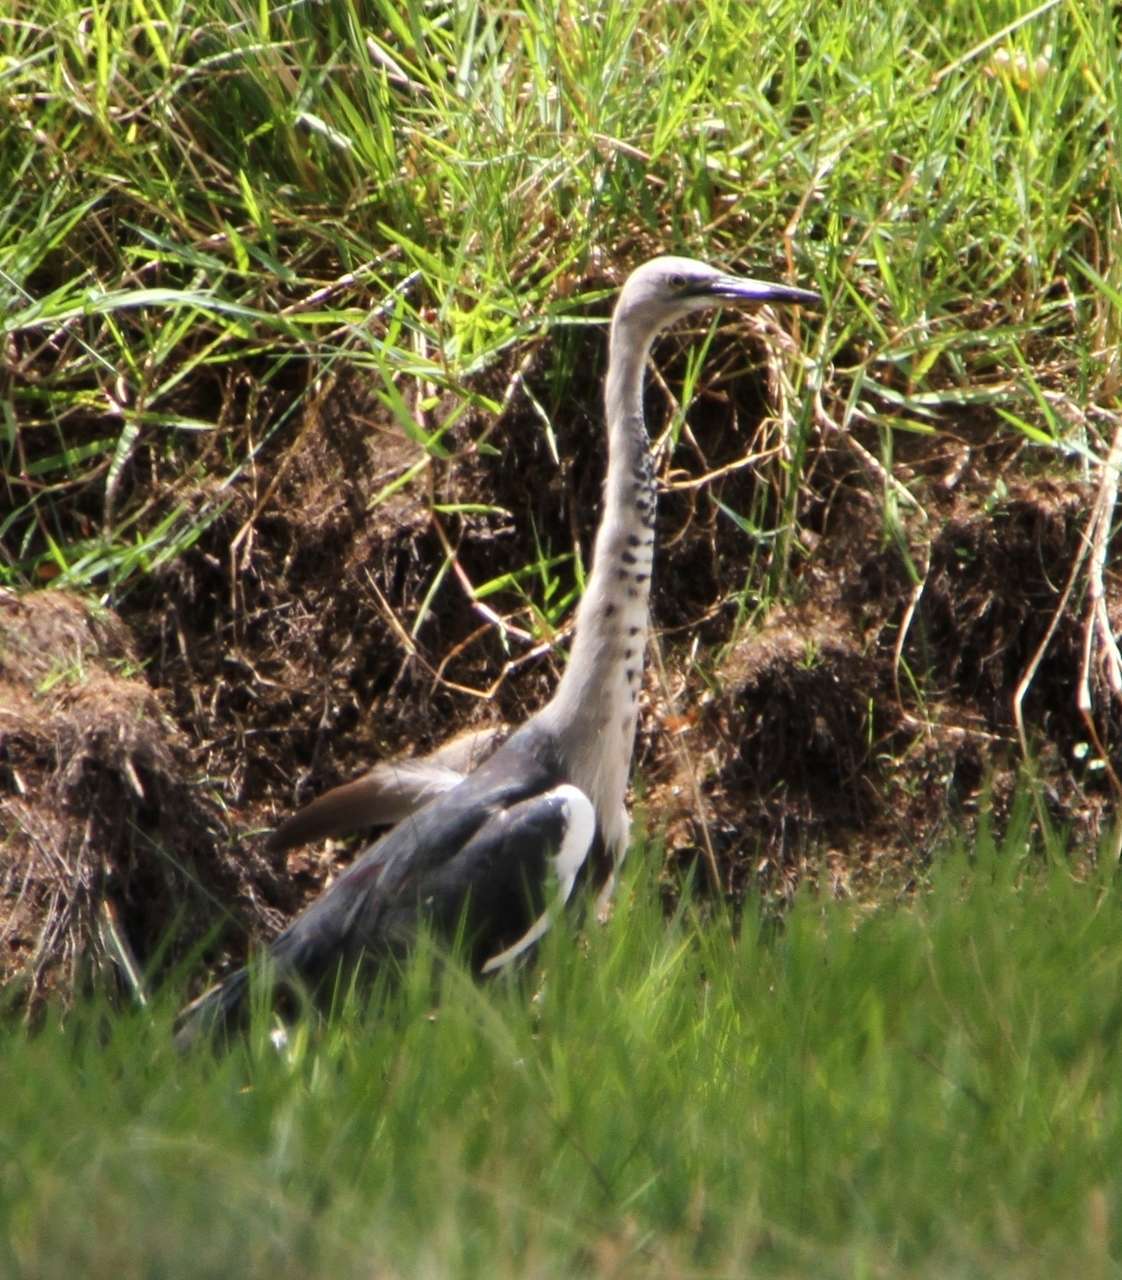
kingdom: Animalia
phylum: Chordata
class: Aves
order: Pelecaniformes
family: Ardeidae
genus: Ardea
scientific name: Ardea pacifica
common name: White-necked heron
